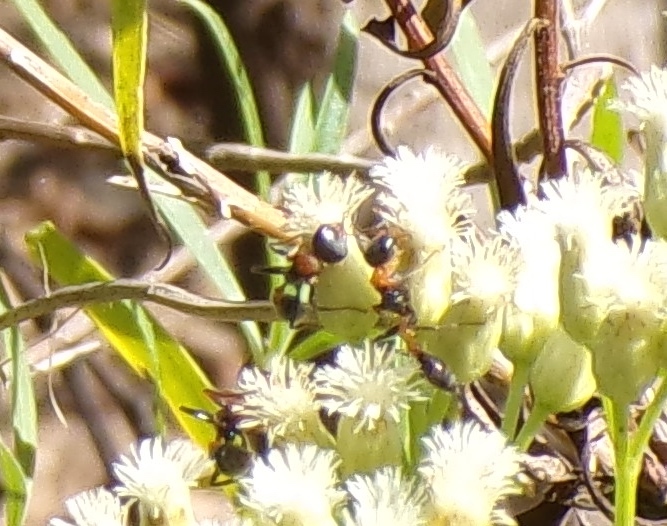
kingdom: Animalia
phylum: Arthropoda
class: Insecta
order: Hymenoptera
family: Formicidae
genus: Pseudomyrmex
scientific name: Pseudomyrmex gracilis
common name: Graceful twig ant
